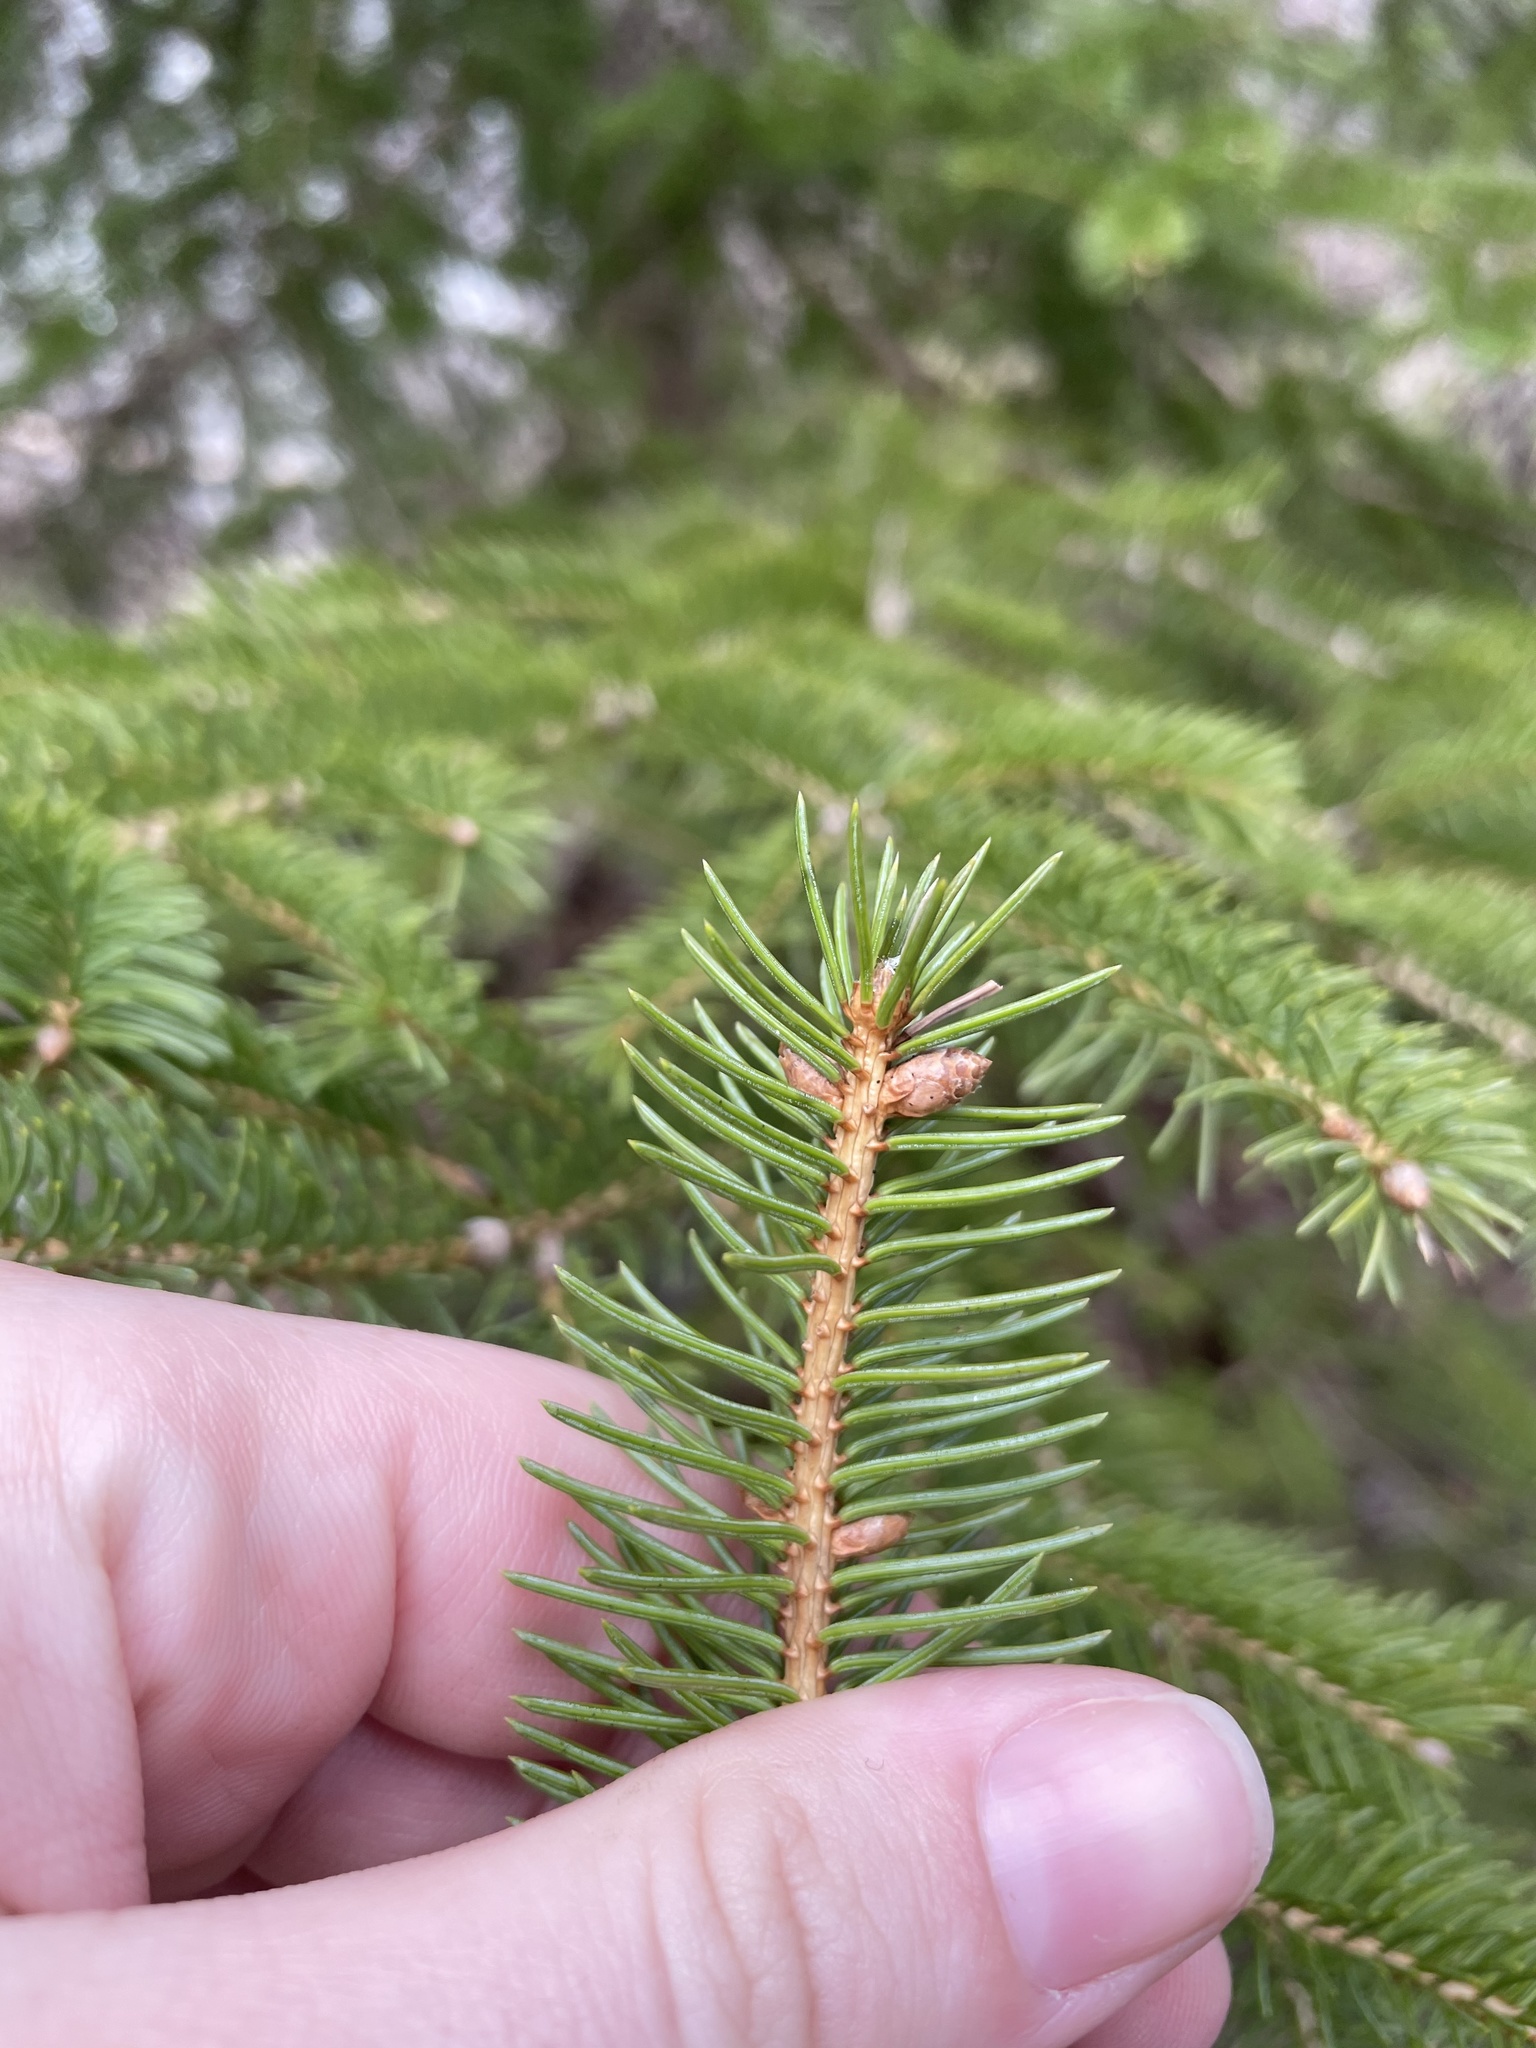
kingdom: Plantae
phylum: Tracheophyta
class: Pinopsida
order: Pinales
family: Pinaceae
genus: Picea
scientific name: Picea glauca
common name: White spruce
